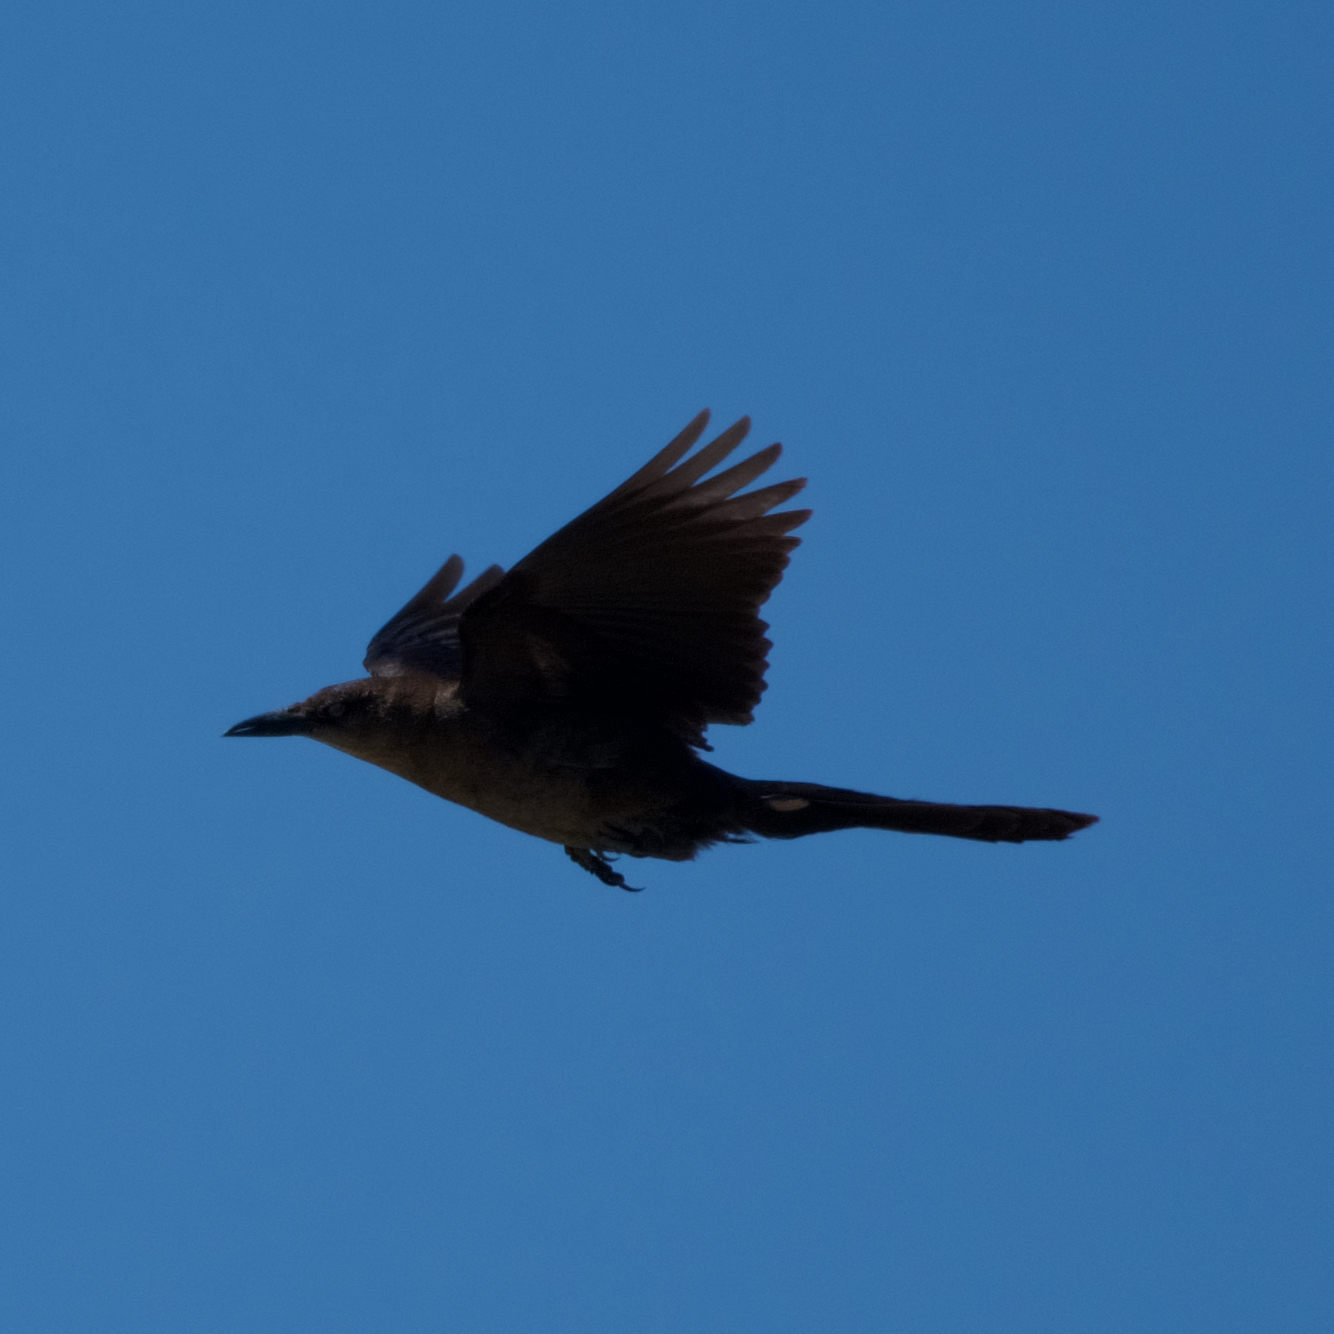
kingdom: Animalia
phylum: Chordata
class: Aves
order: Passeriformes
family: Icteridae
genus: Quiscalus
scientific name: Quiscalus mexicanus
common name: Great-tailed grackle
